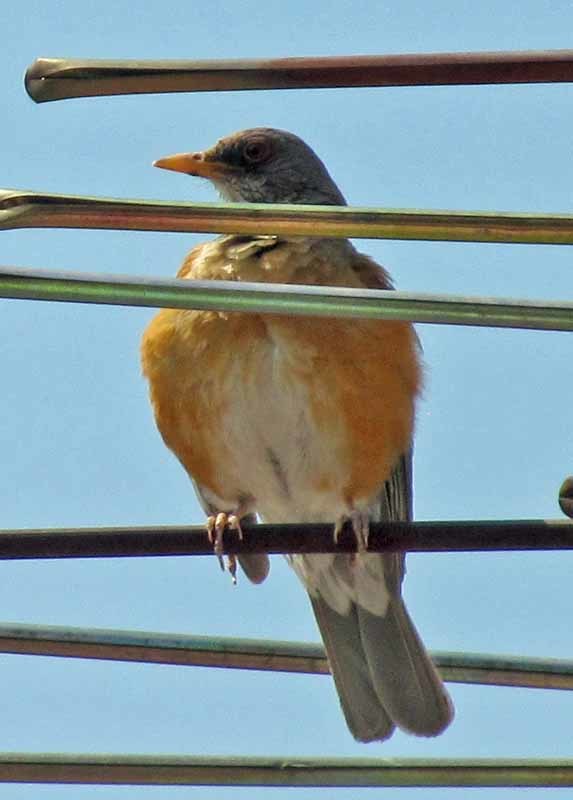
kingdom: Animalia
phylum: Chordata
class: Aves
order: Passeriformes
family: Turdidae
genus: Turdus
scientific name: Turdus rufopalliatus
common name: Rufous-backed robin
